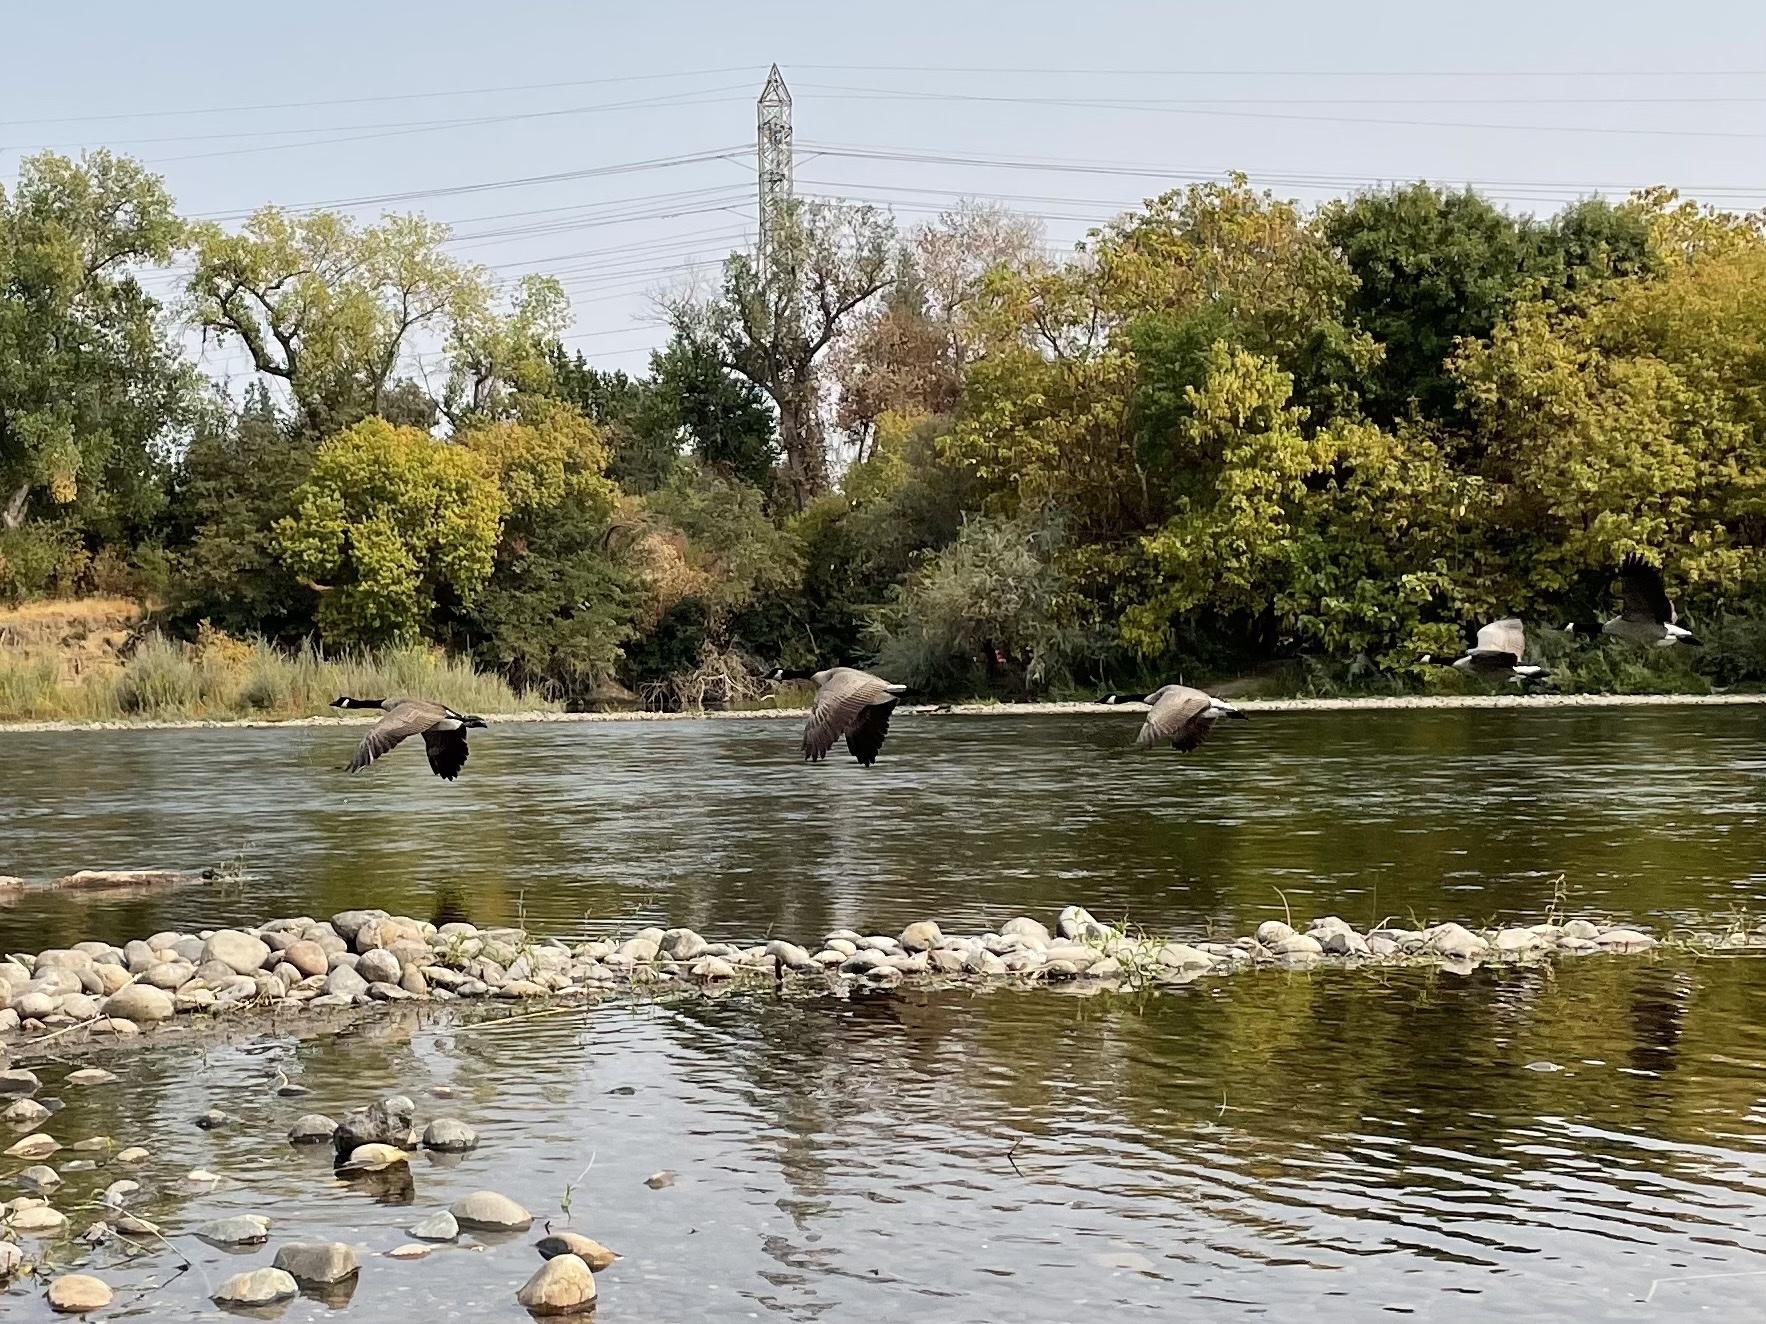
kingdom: Animalia
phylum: Chordata
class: Aves
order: Anseriformes
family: Anatidae
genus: Branta
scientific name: Branta canadensis
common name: Canada goose
